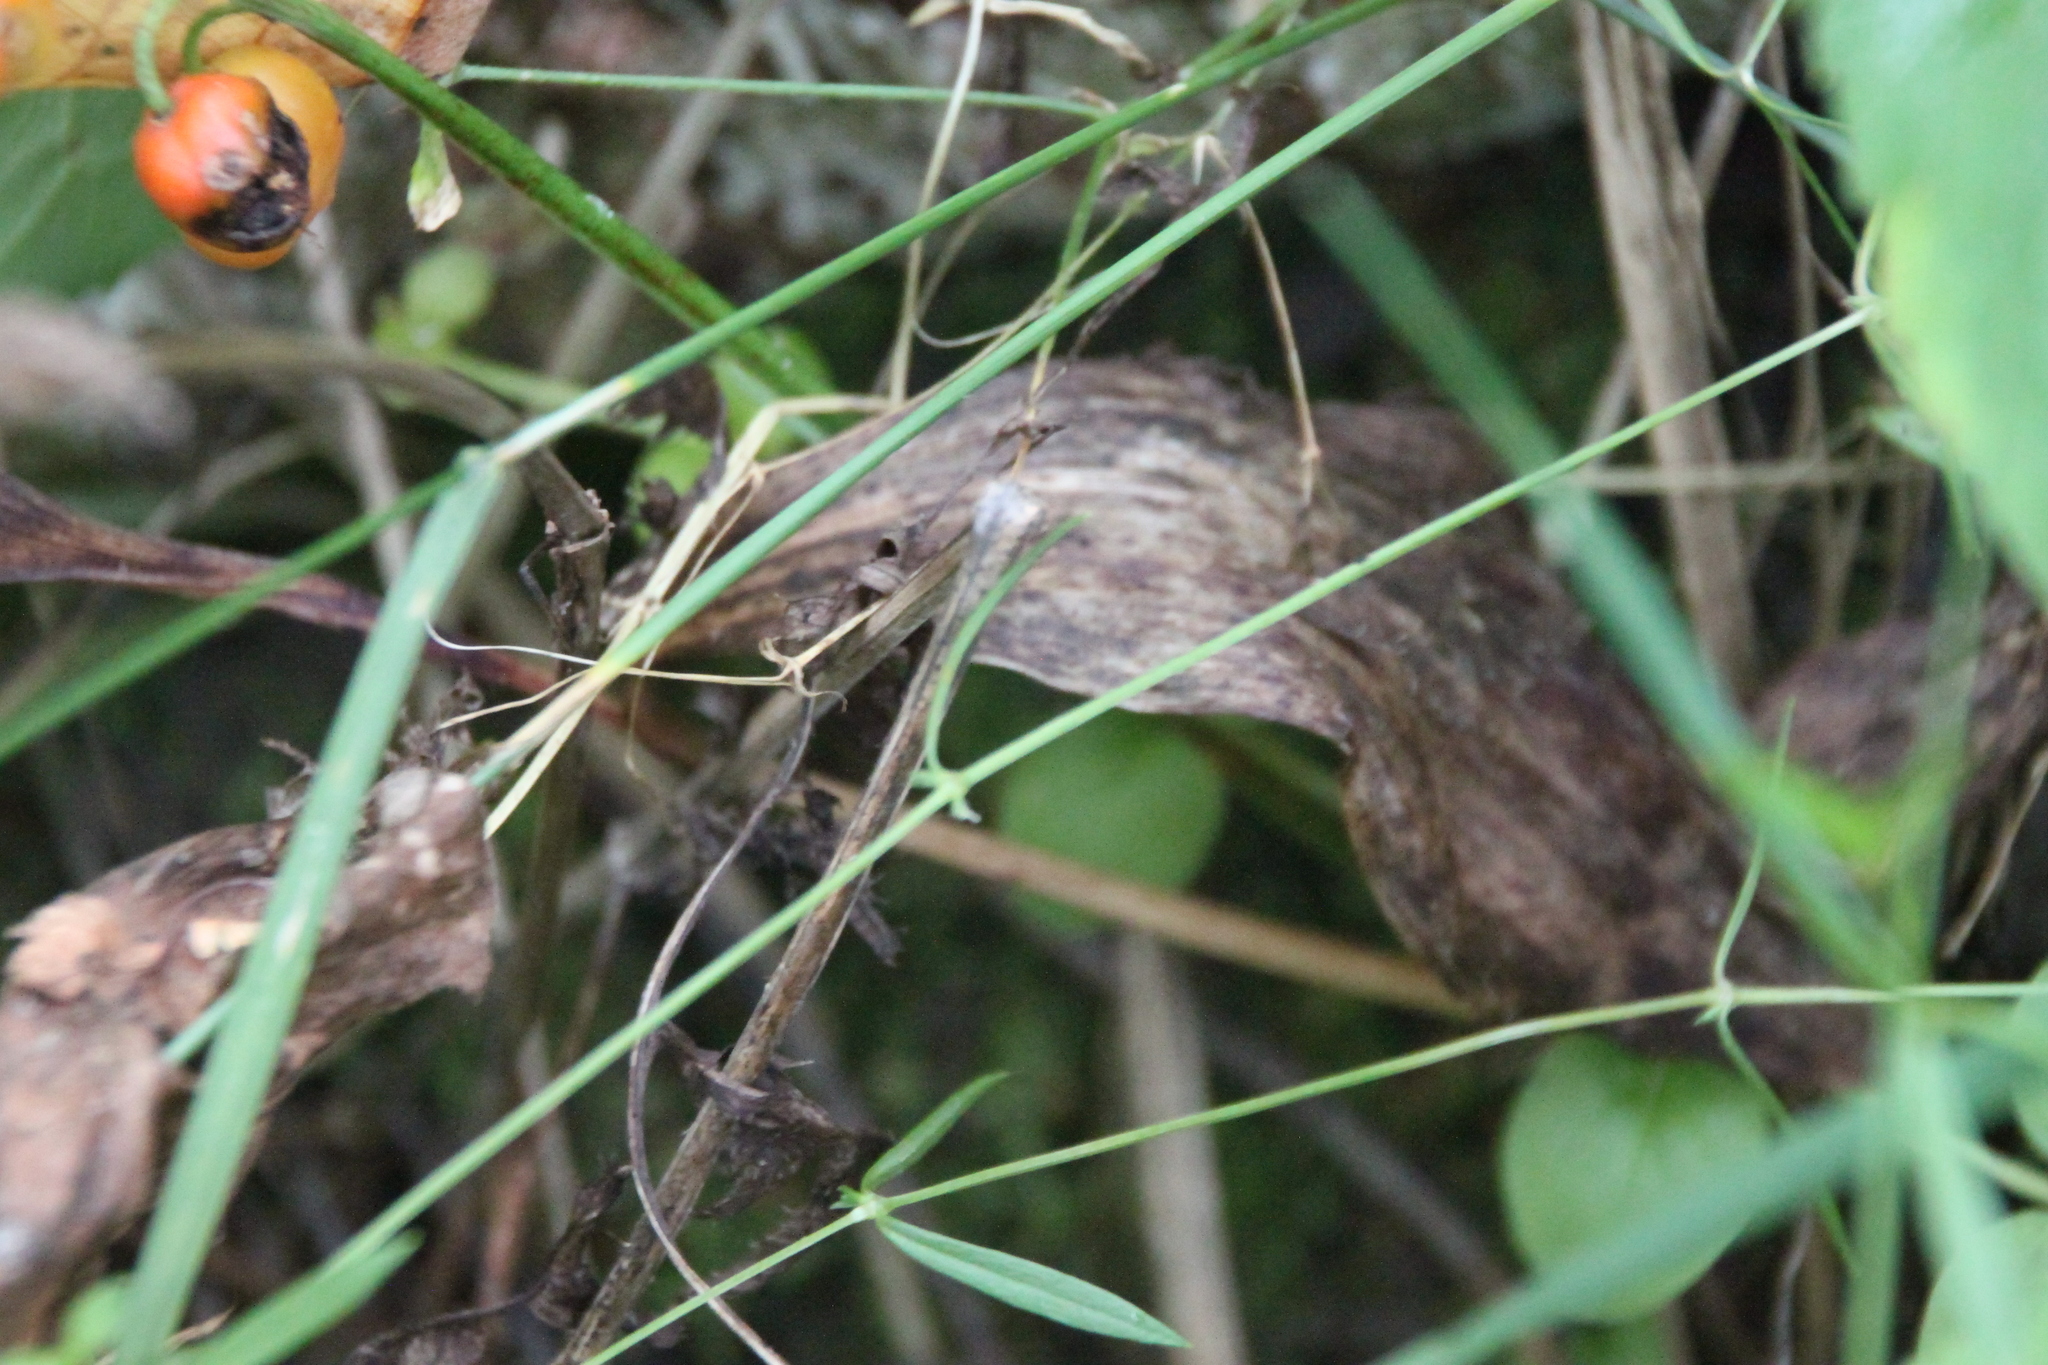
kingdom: Plantae
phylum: Tracheophyta
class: Liliopsida
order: Asparagales
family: Asparagaceae
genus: Convallaria
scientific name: Convallaria majalis
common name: Lily-of-the-valley
